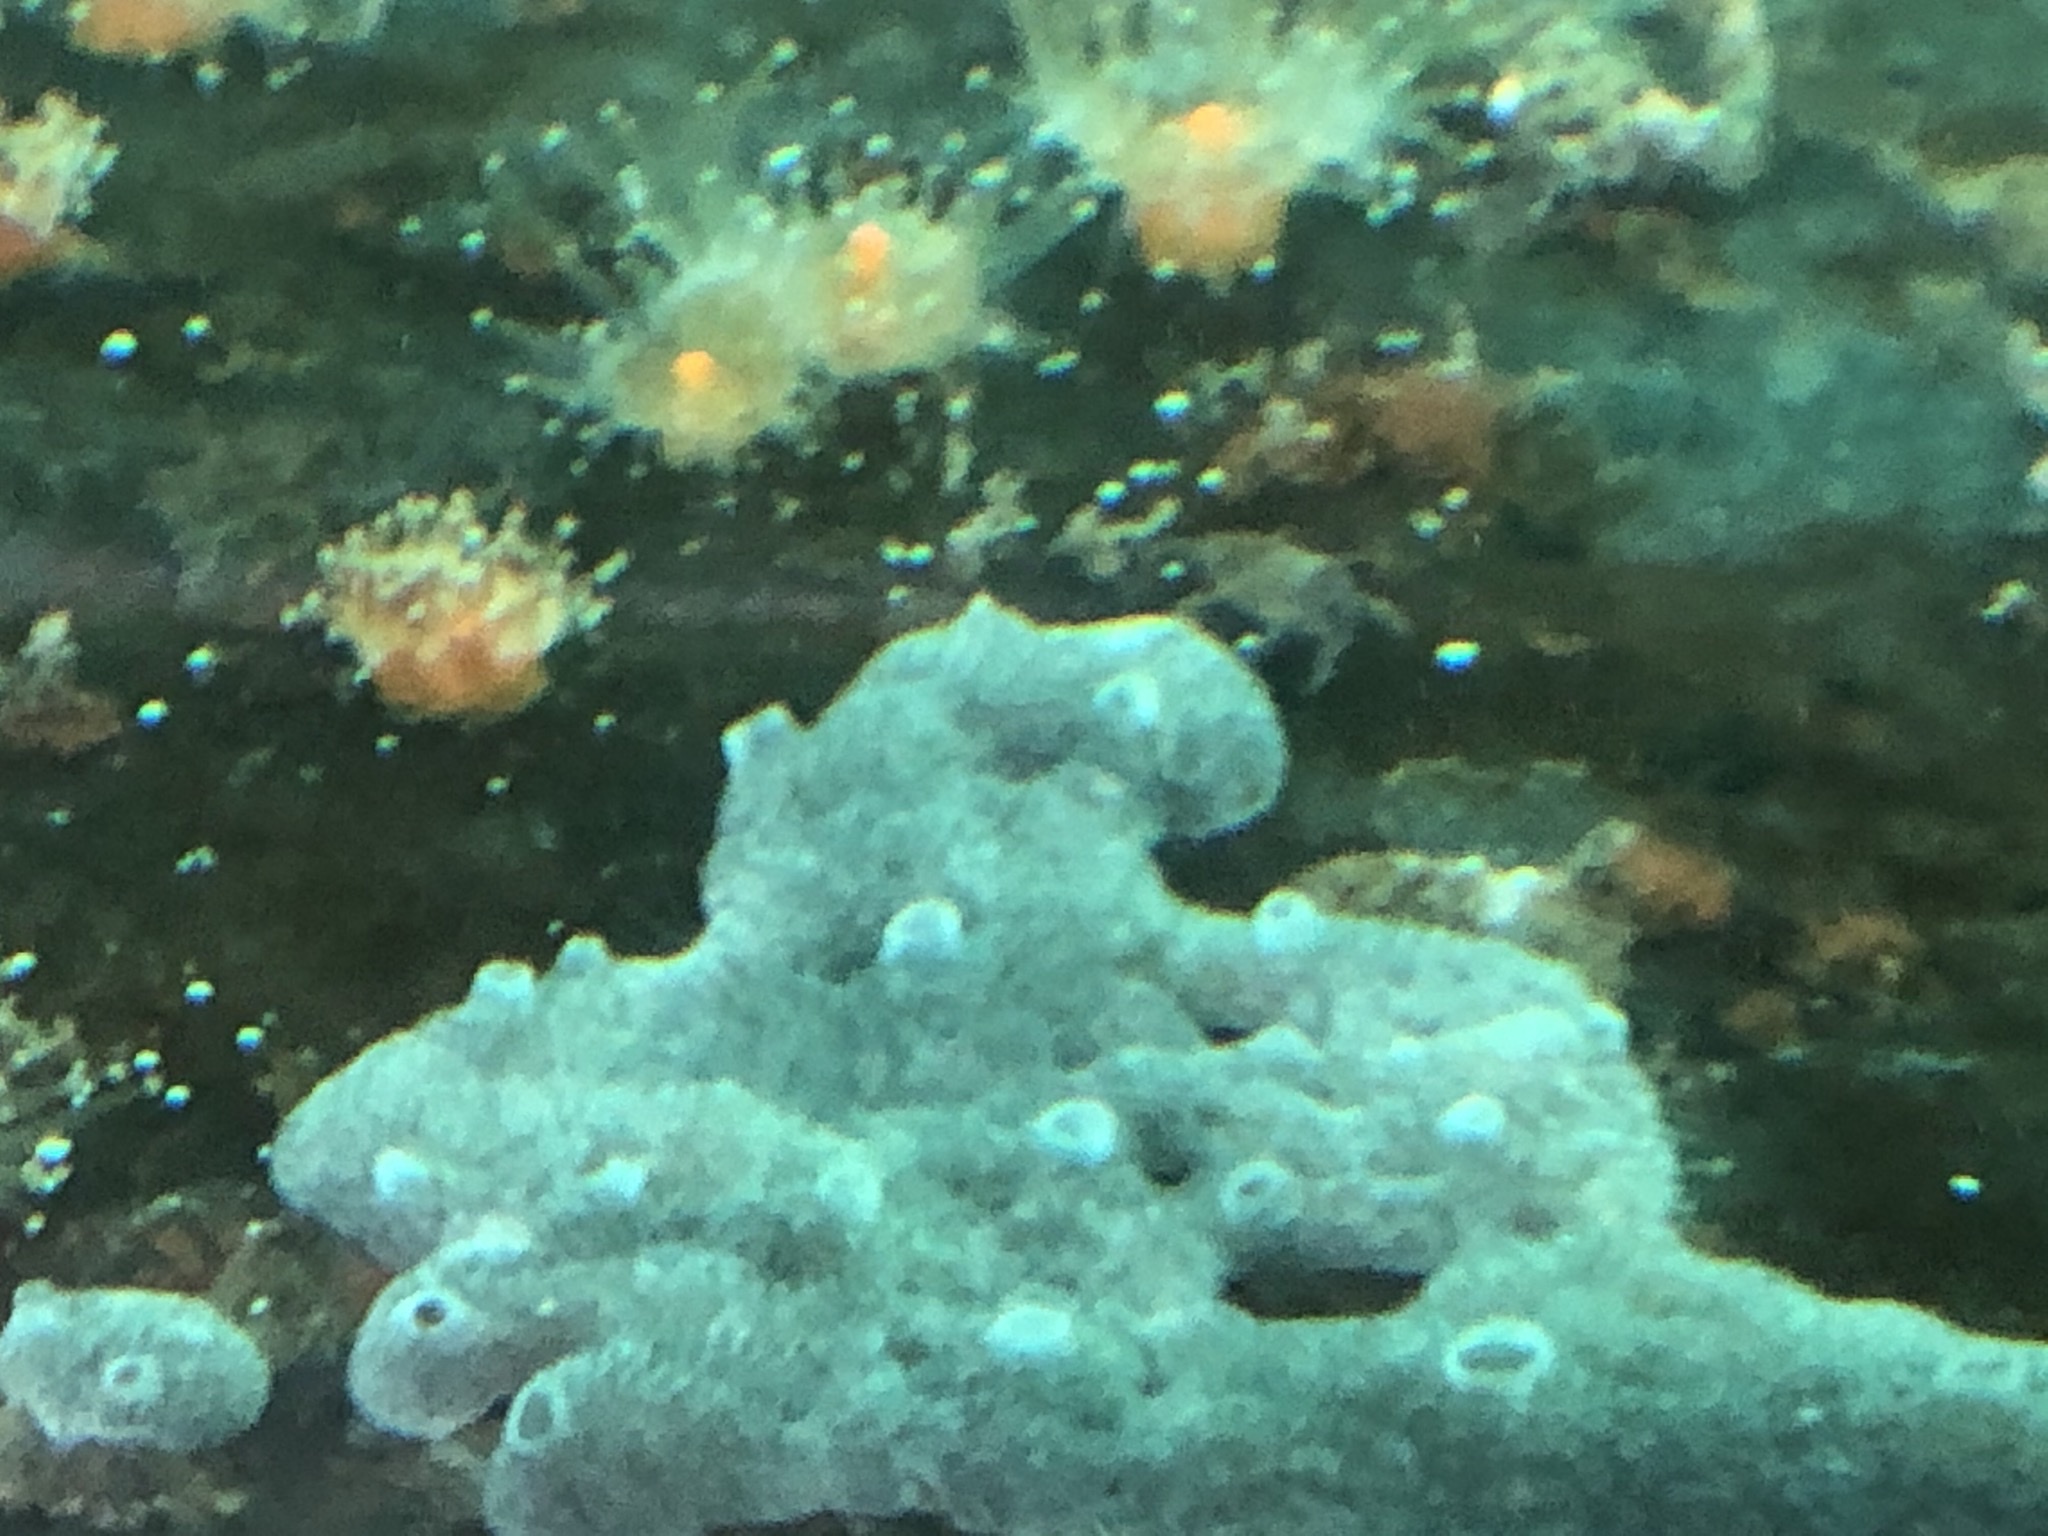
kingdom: Animalia
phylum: Chordata
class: Ascidiacea
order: Aplousobranchia
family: Didemnidae
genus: Diplosoma
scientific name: Diplosoma listerianum
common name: Compound sea squirt
